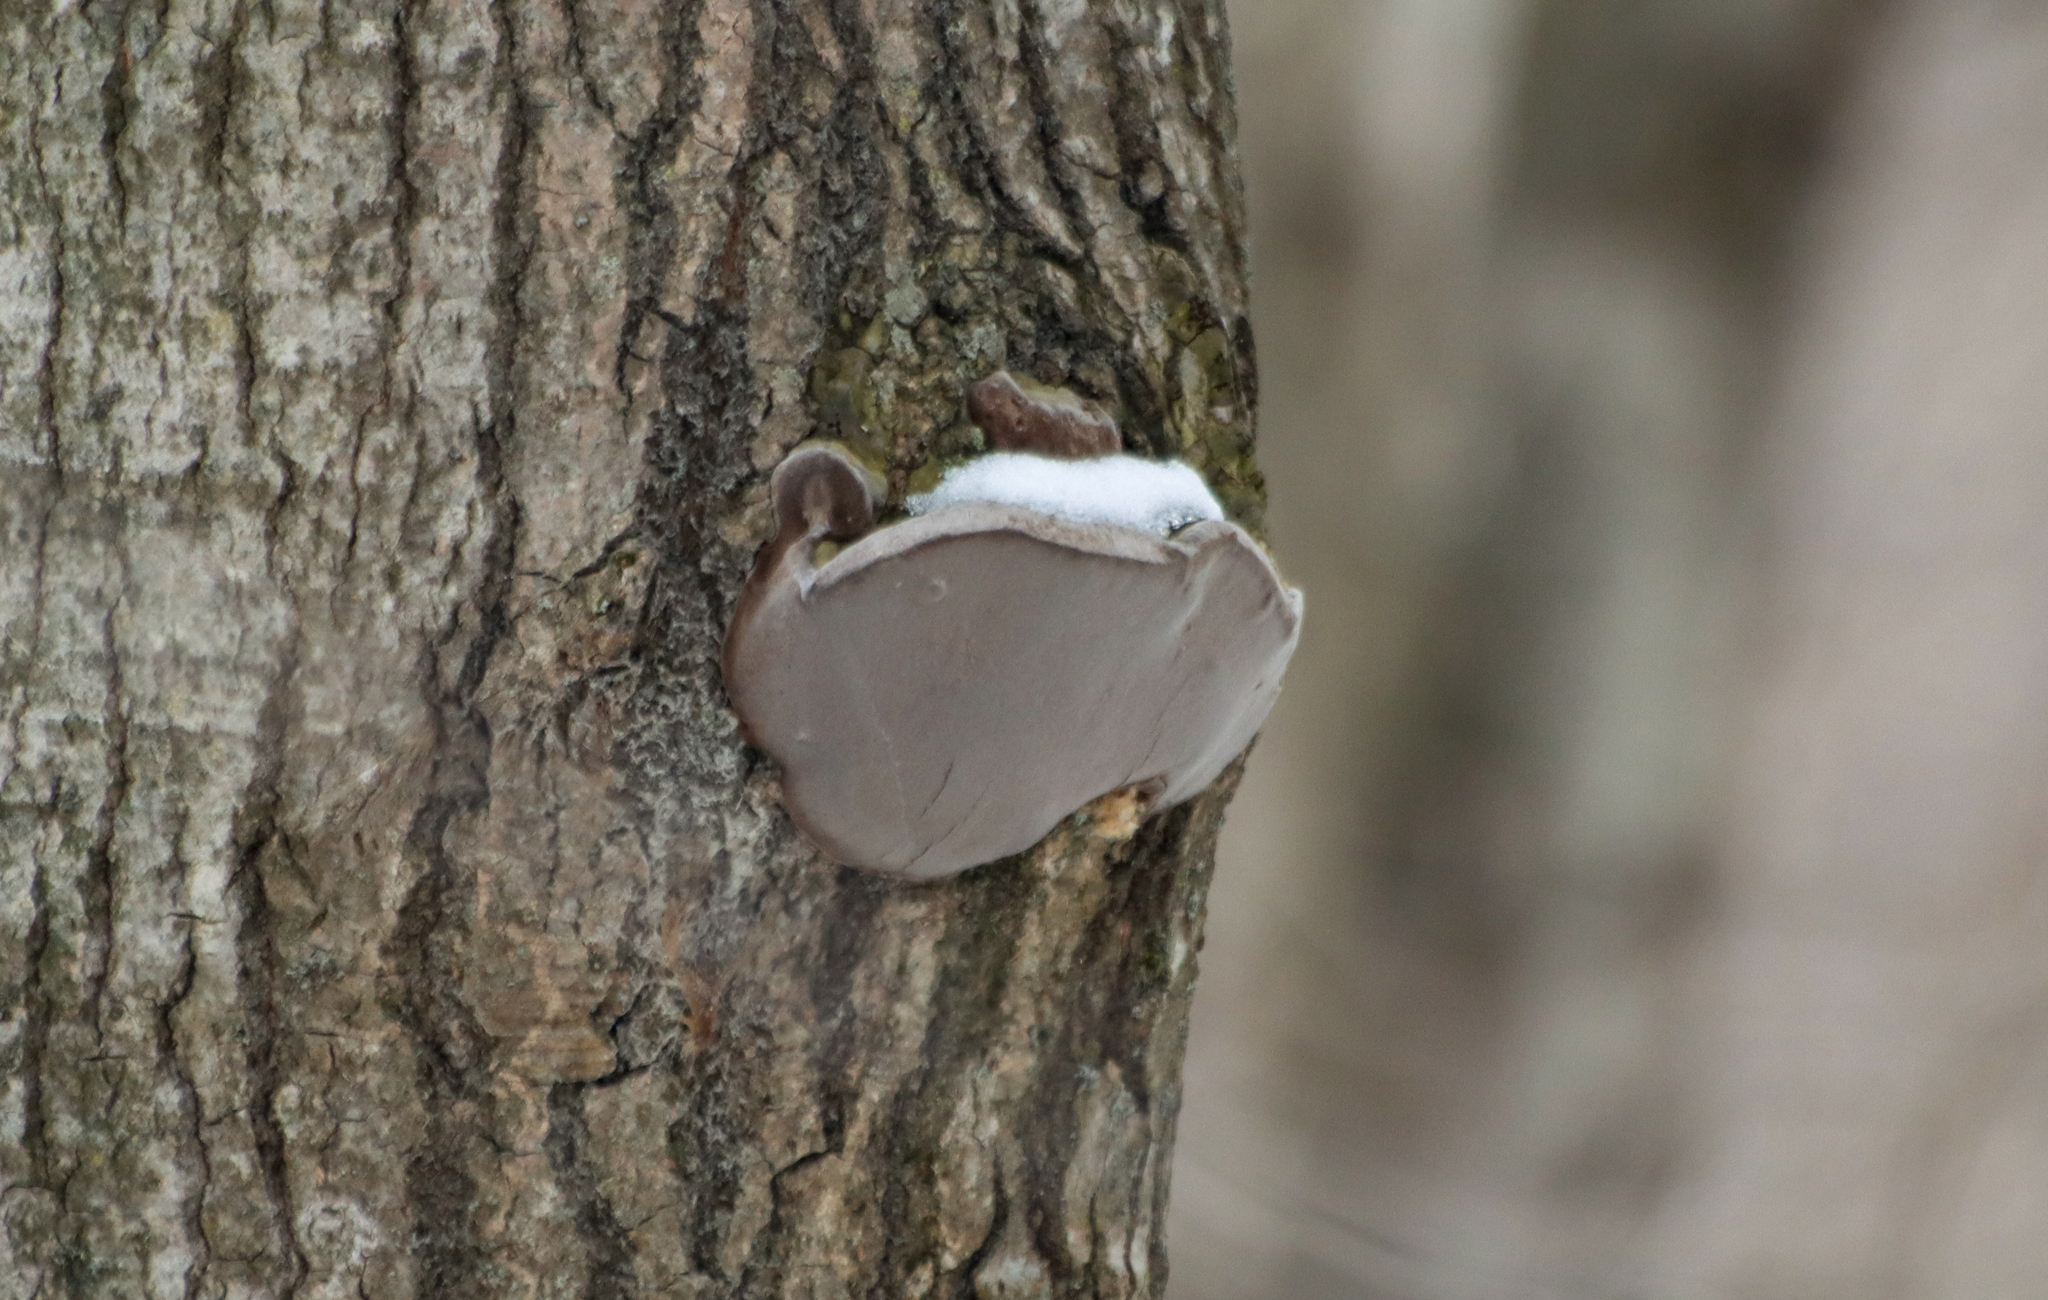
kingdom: Fungi
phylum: Basidiomycota
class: Agaricomycetes
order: Hymenochaetales
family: Hymenochaetaceae
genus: Phellinus
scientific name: Phellinus tremulae
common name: Aspen bracket
